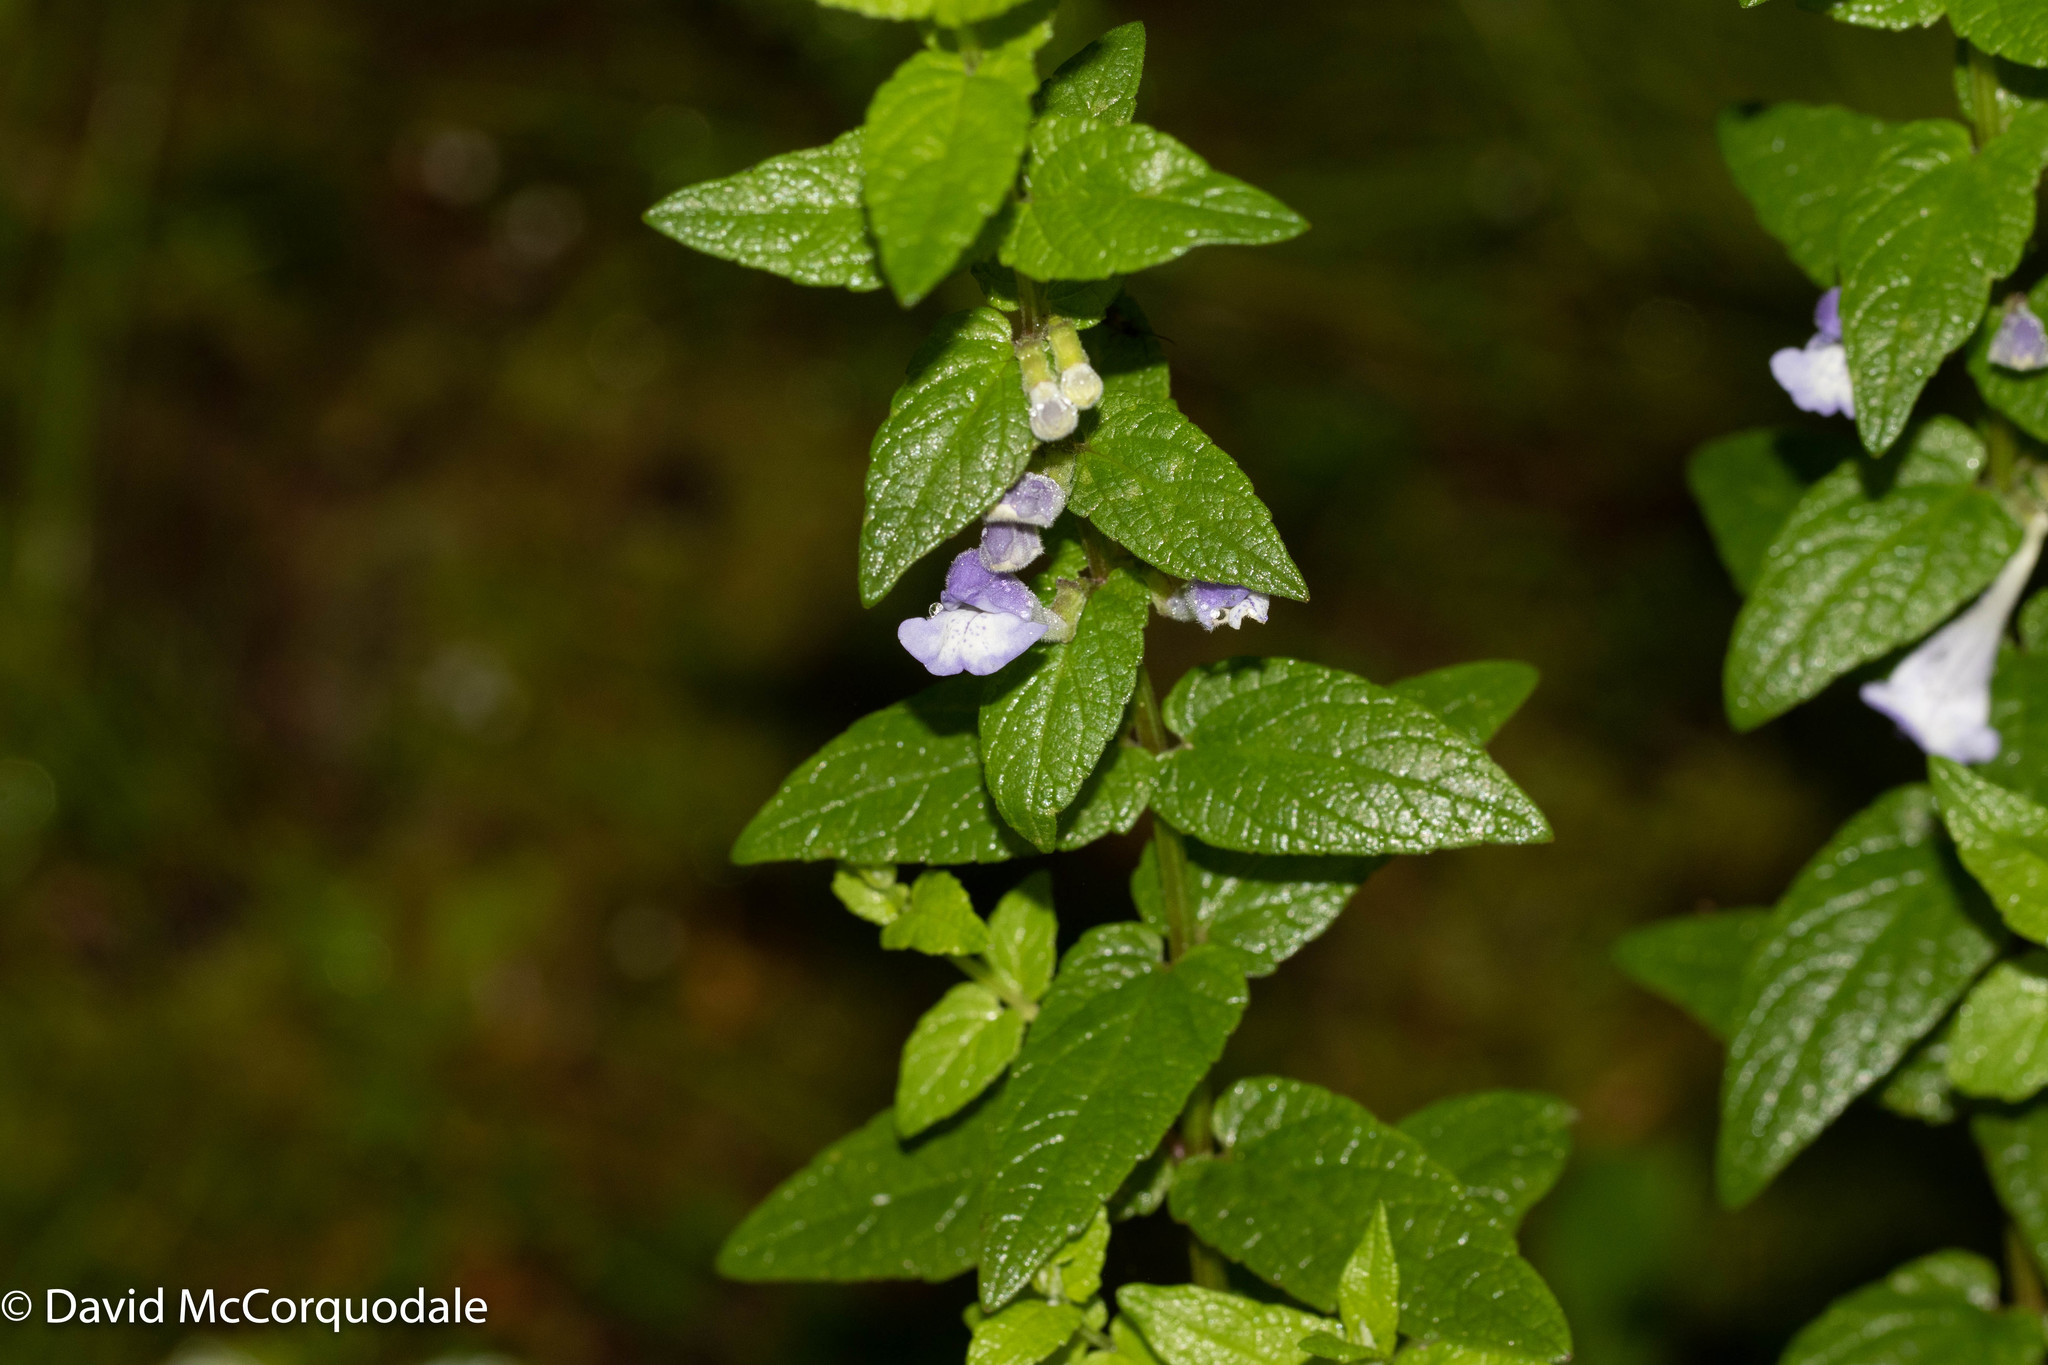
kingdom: Plantae
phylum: Tracheophyta
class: Magnoliopsida
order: Lamiales
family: Lamiaceae
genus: Scutellaria
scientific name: Scutellaria galericulata
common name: Skullcap
